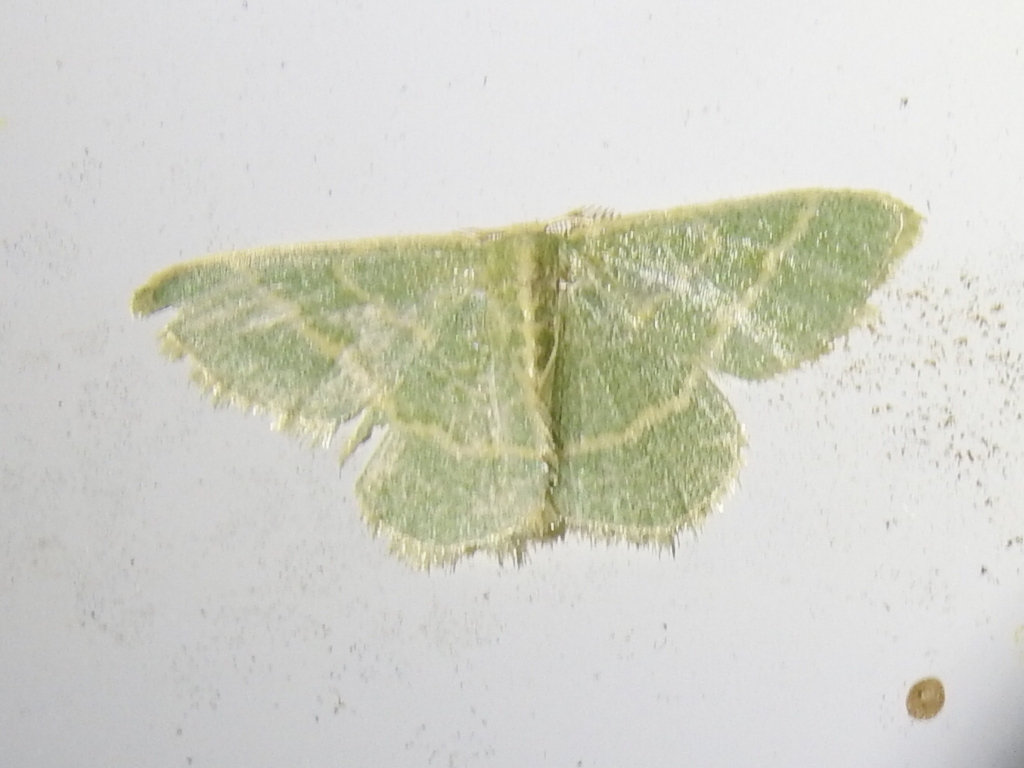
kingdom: Animalia
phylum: Arthropoda
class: Insecta
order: Lepidoptera
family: Geometridae
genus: Chlorochlamys
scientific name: Chlorochlamys chloroleucaria
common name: Blackberry looper
